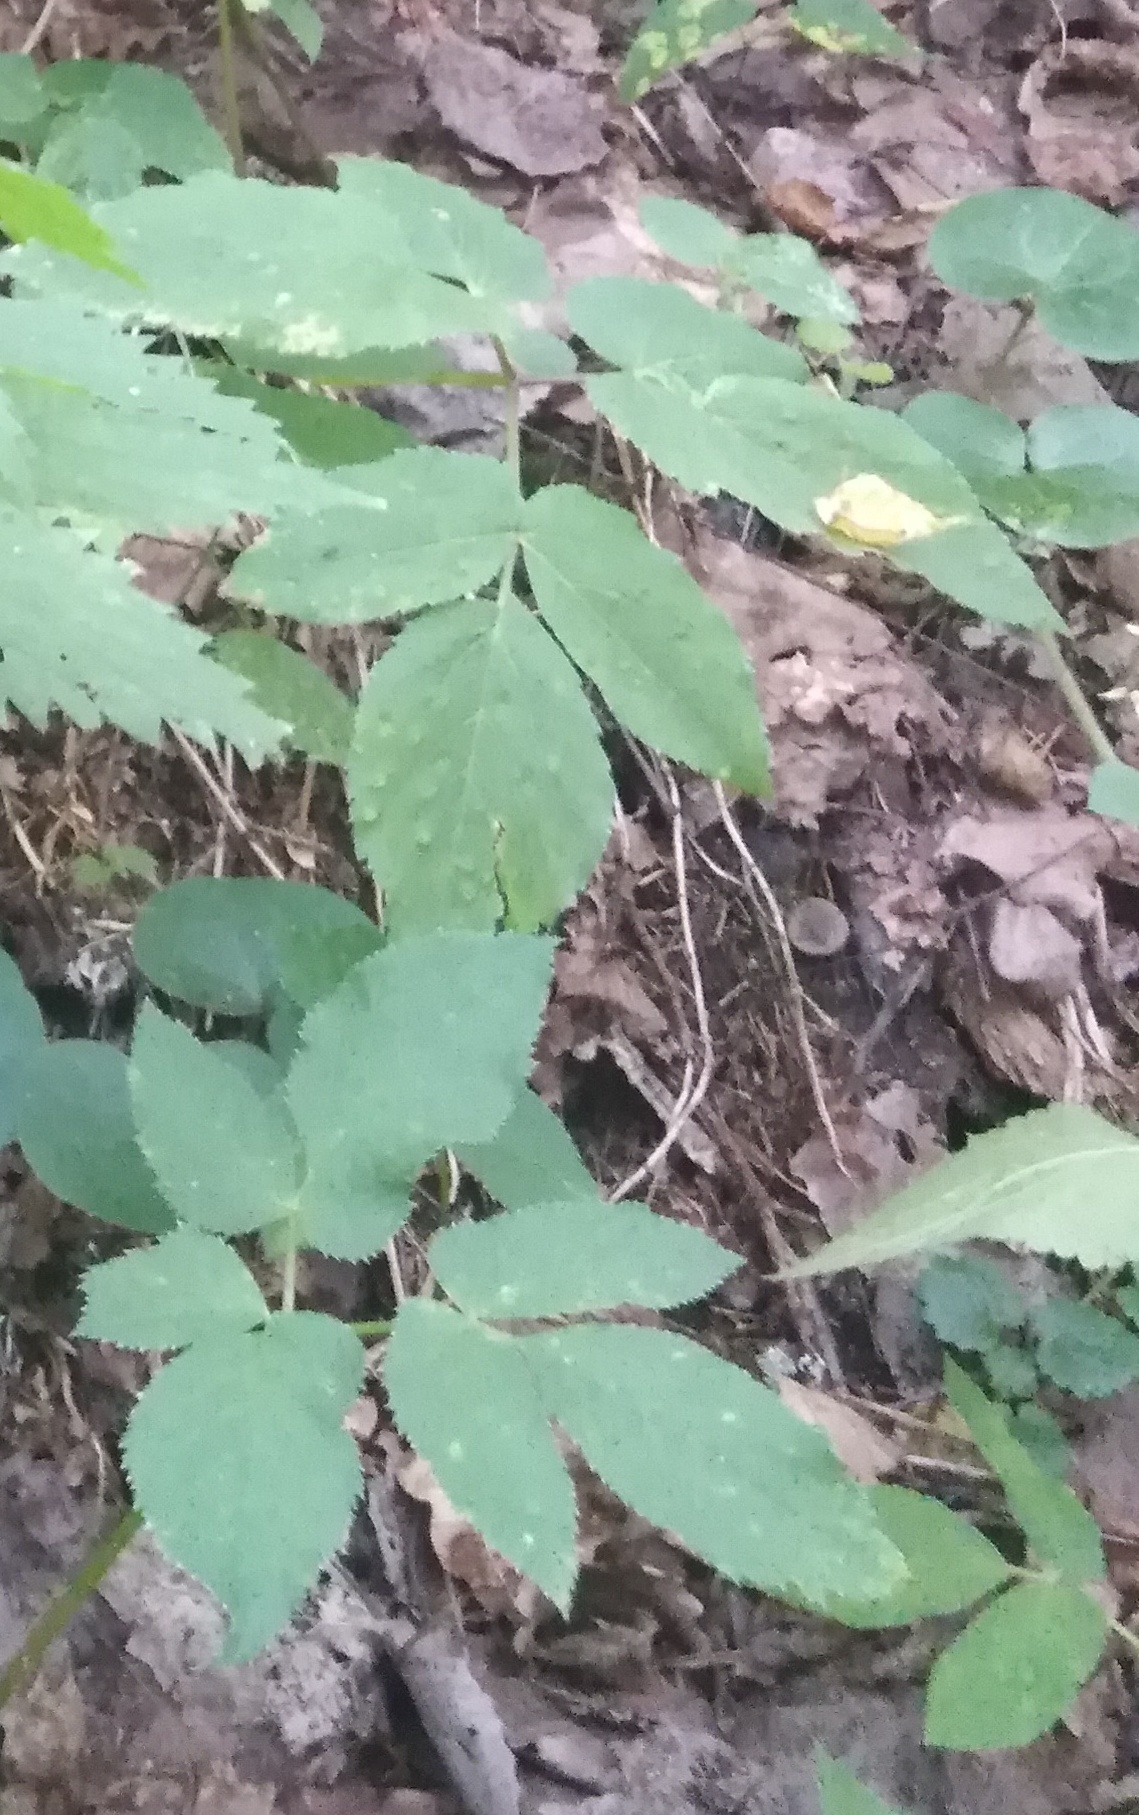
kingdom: Plantae
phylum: Tracheophyta
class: Magnoliopsida
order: Apiales
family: Apiaceae
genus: Aegopodium
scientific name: Aegopodium podagraria
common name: Ground-elder
